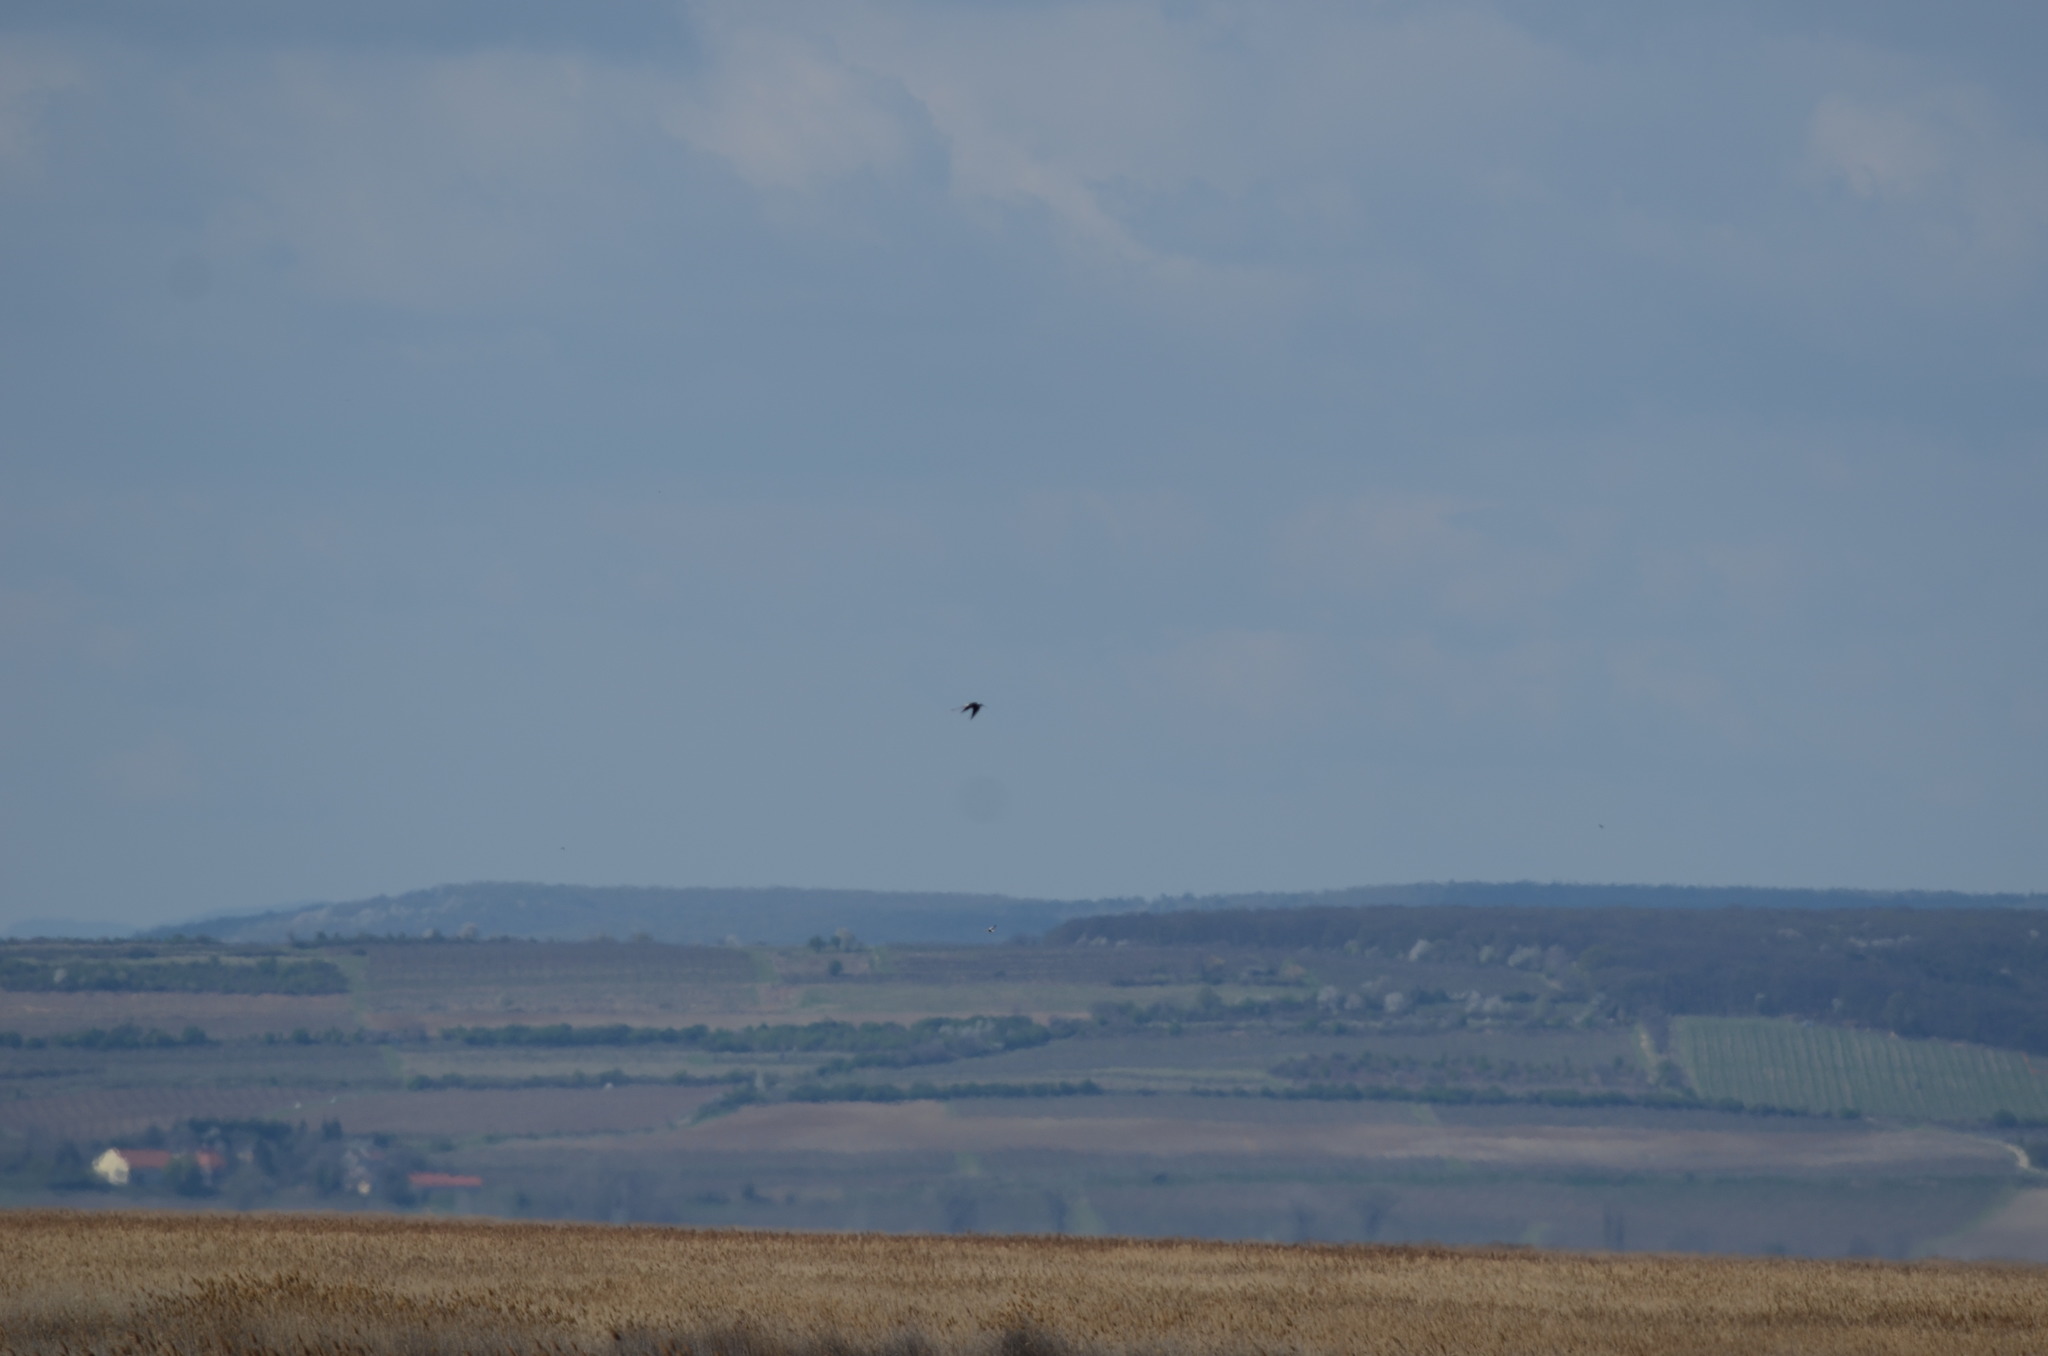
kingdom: Animalia
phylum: Chordata
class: Aves
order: Charadriiformes
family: Recurvirostridae
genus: Himantopus
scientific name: Himantopus himantopus
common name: Black-winged stilt
